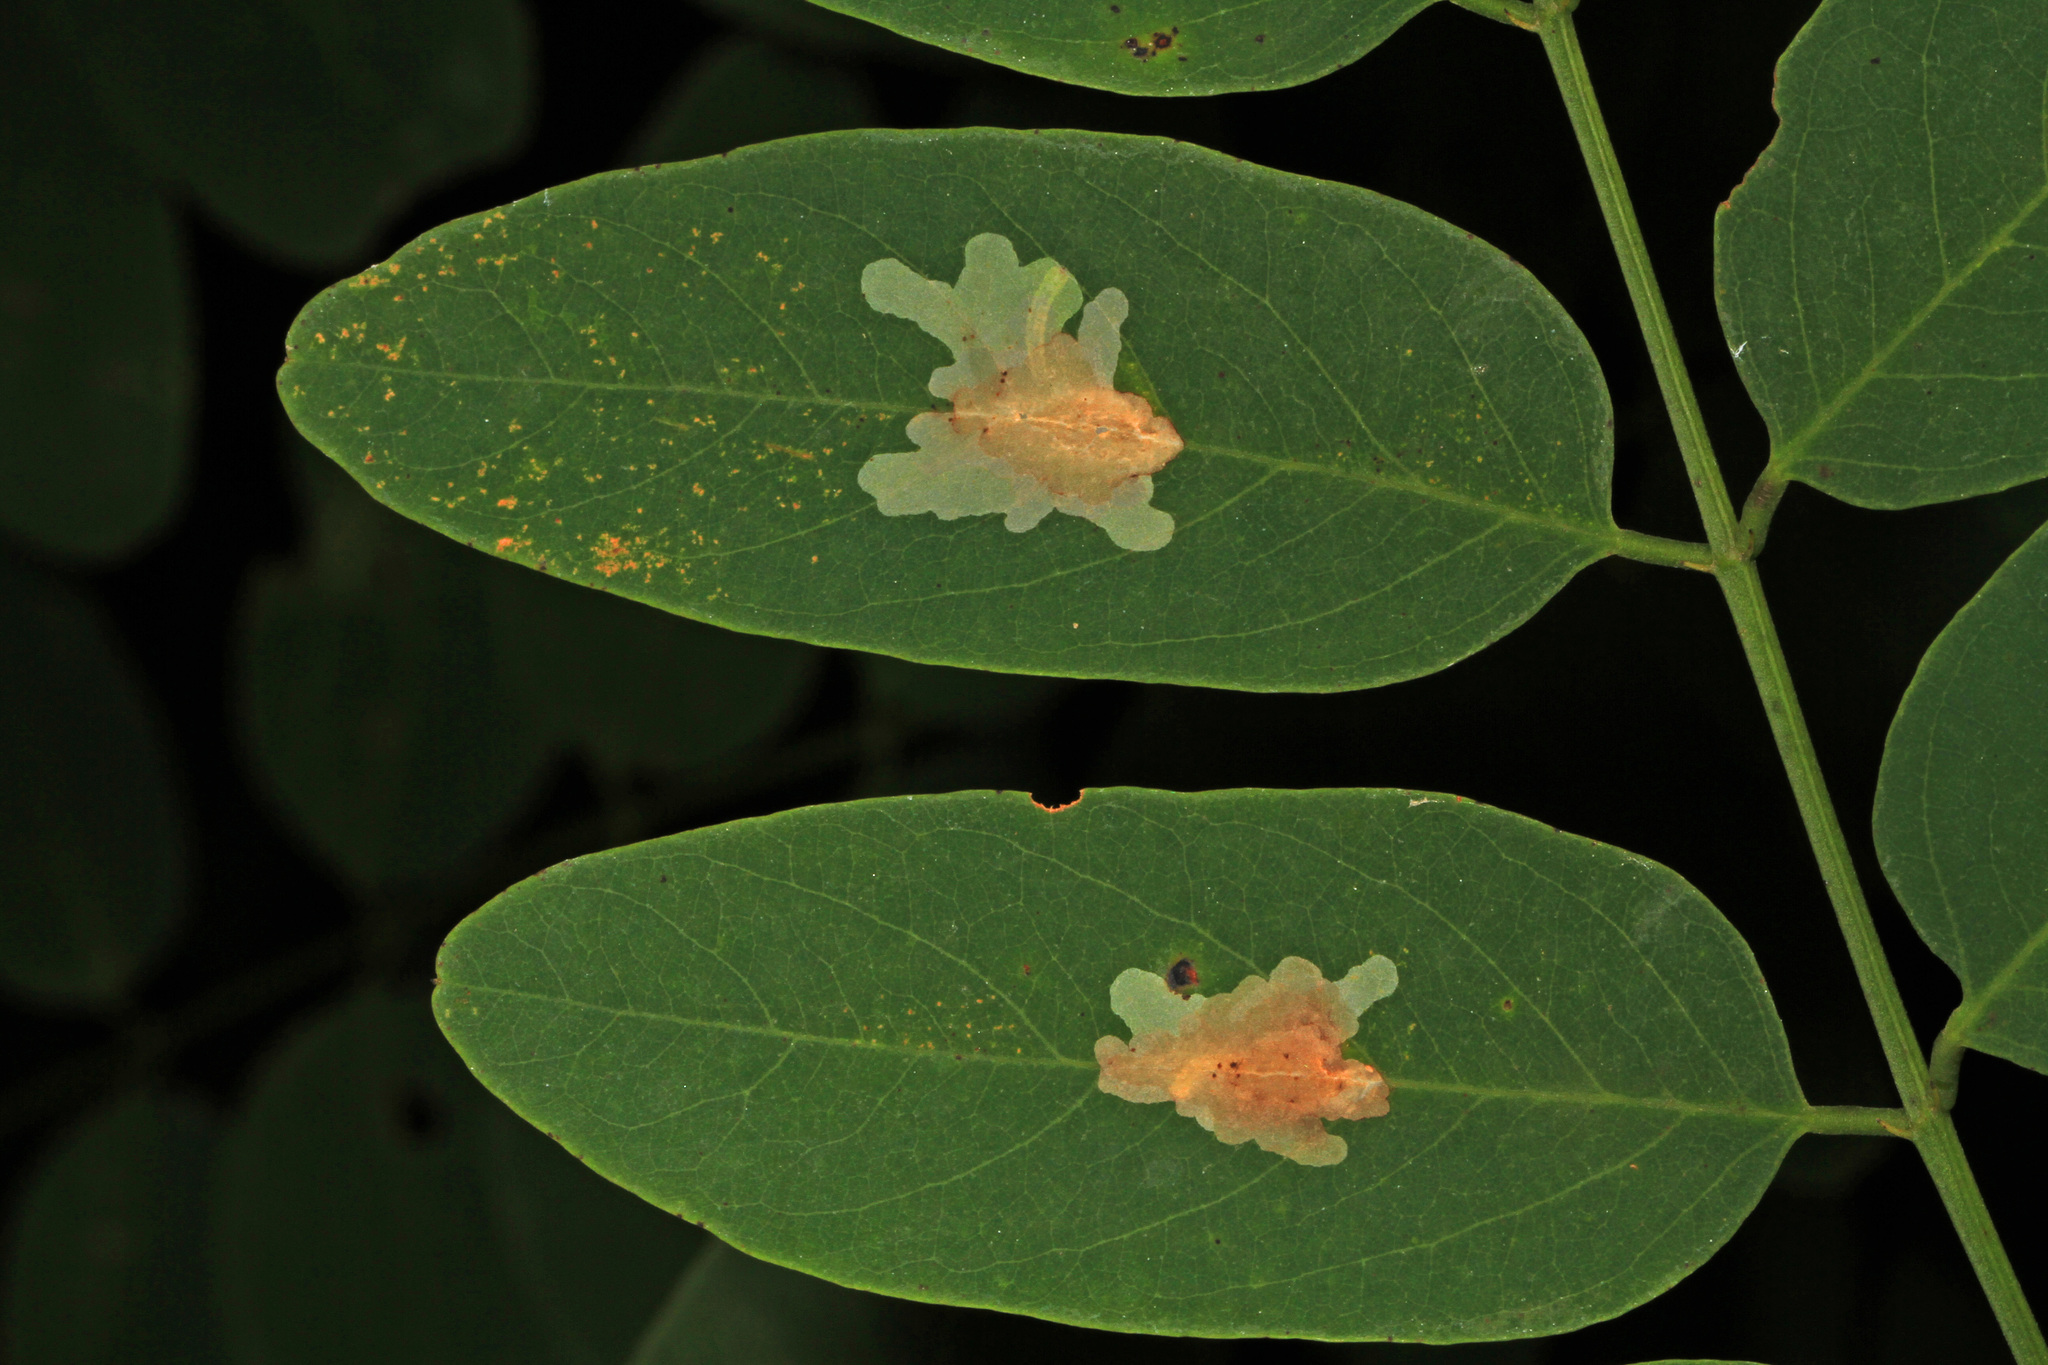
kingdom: Animalia
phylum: Arthropoda
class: Insecta
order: Lepidoptera
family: Gracillariidae
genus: Parectopa
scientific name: Parectopa robiniella
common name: Locust digitate leafminer
